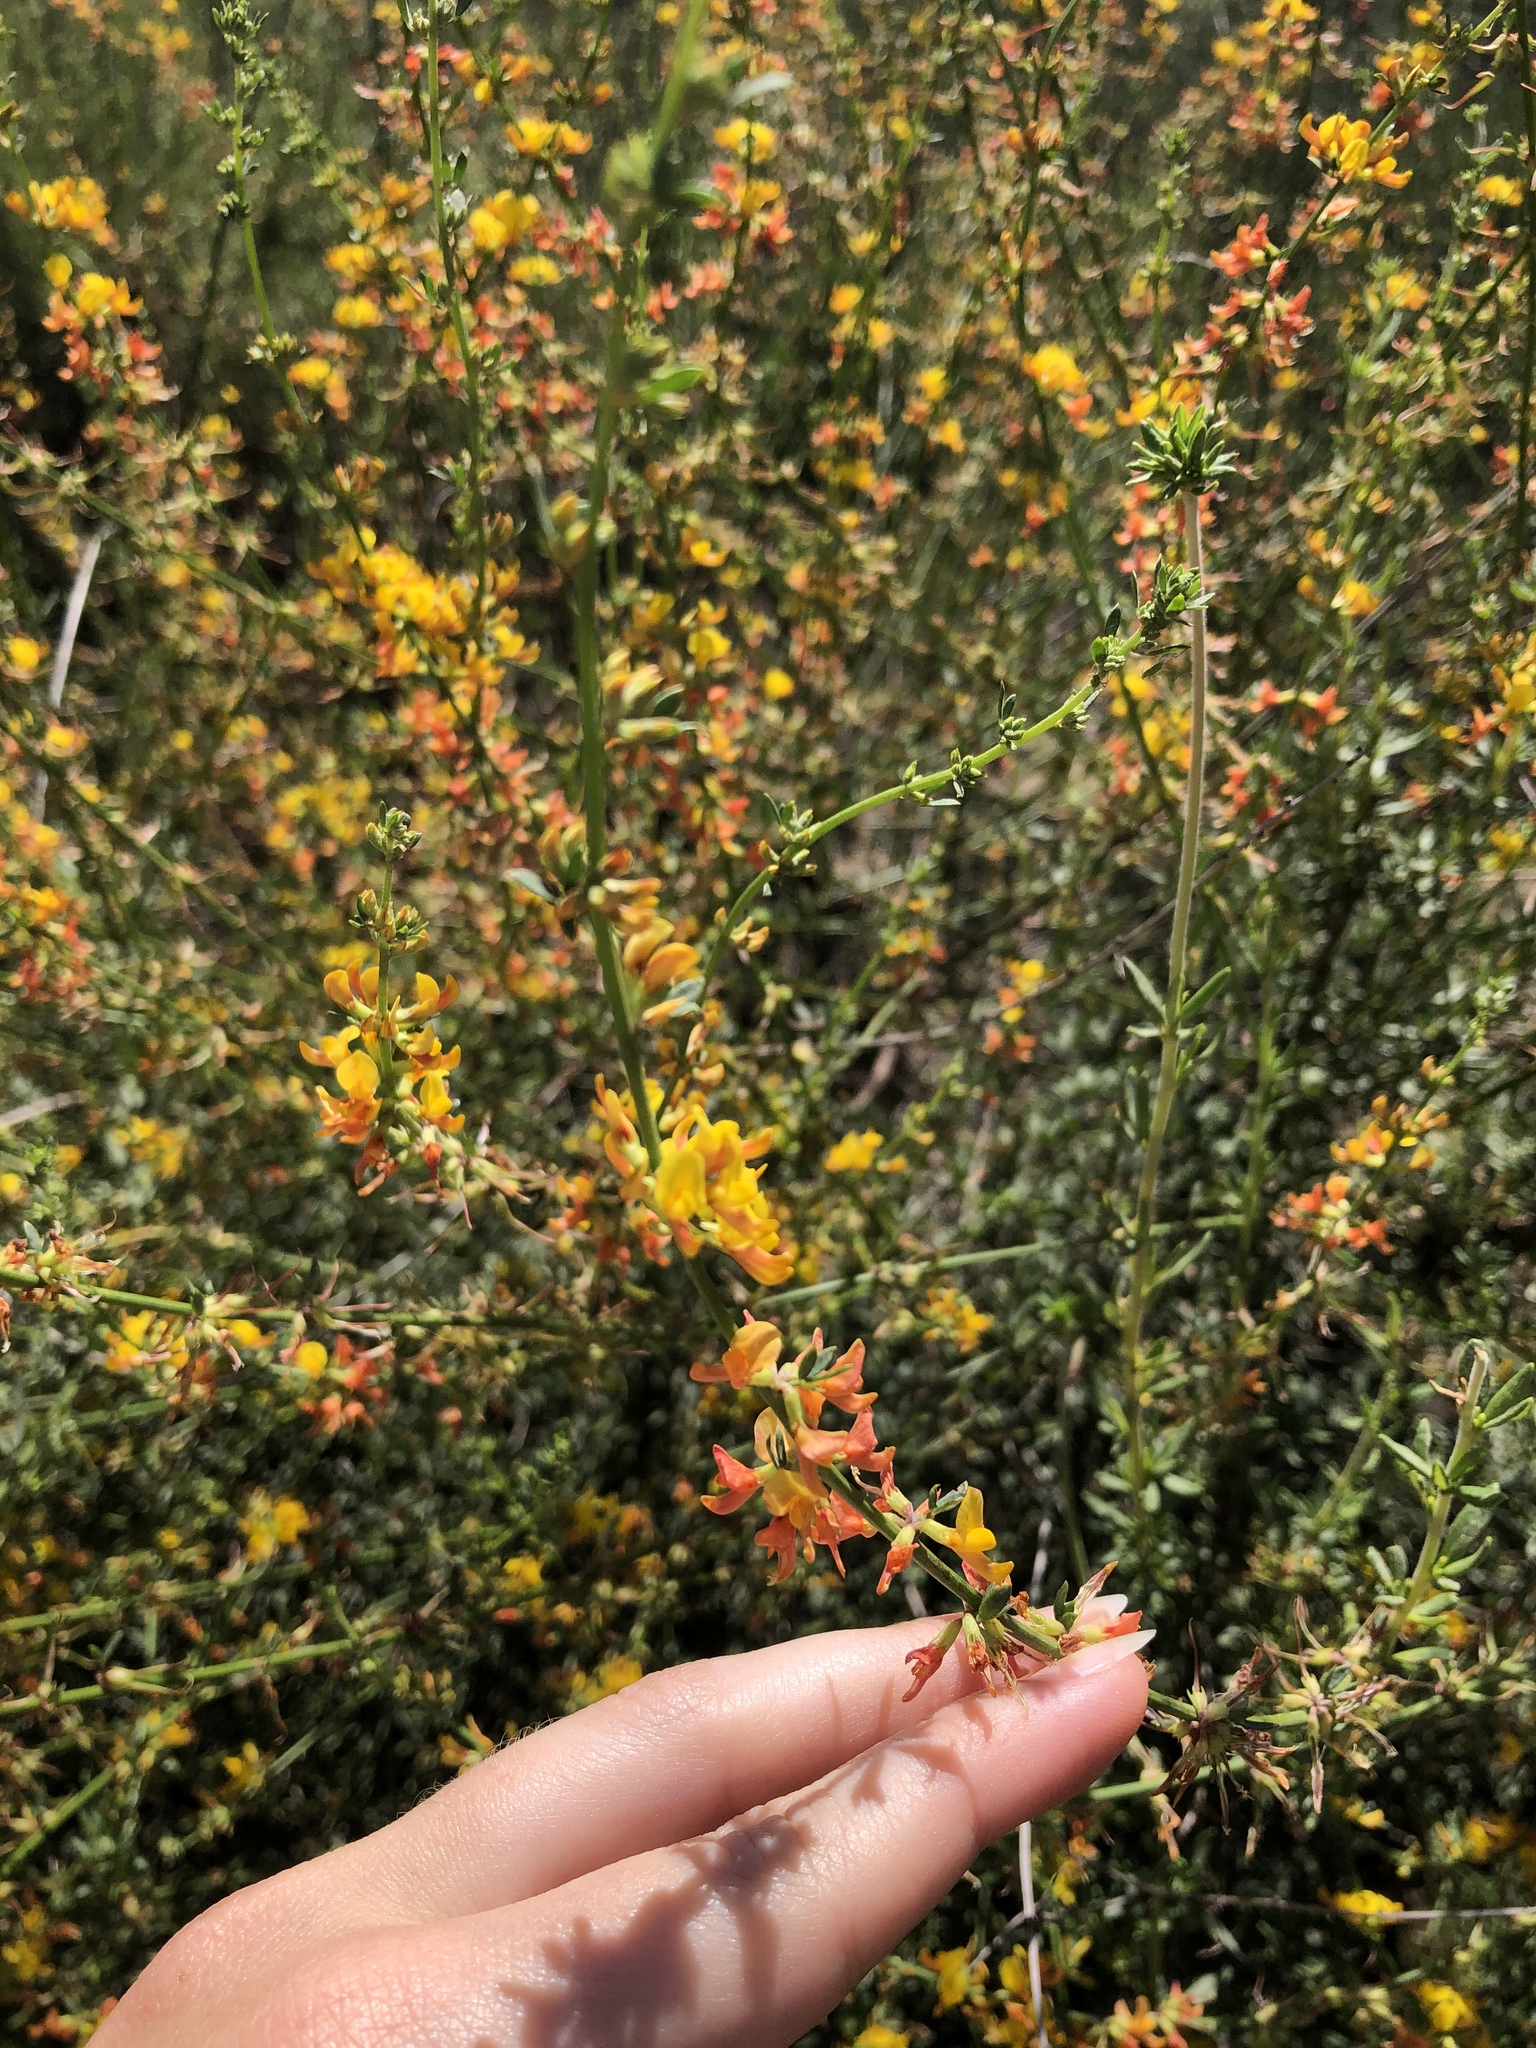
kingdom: Plantae
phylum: Tracheophyta
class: Magnoliopsida
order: Fabales
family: Fabaceae
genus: Acmispon
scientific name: Acmispon glaber
